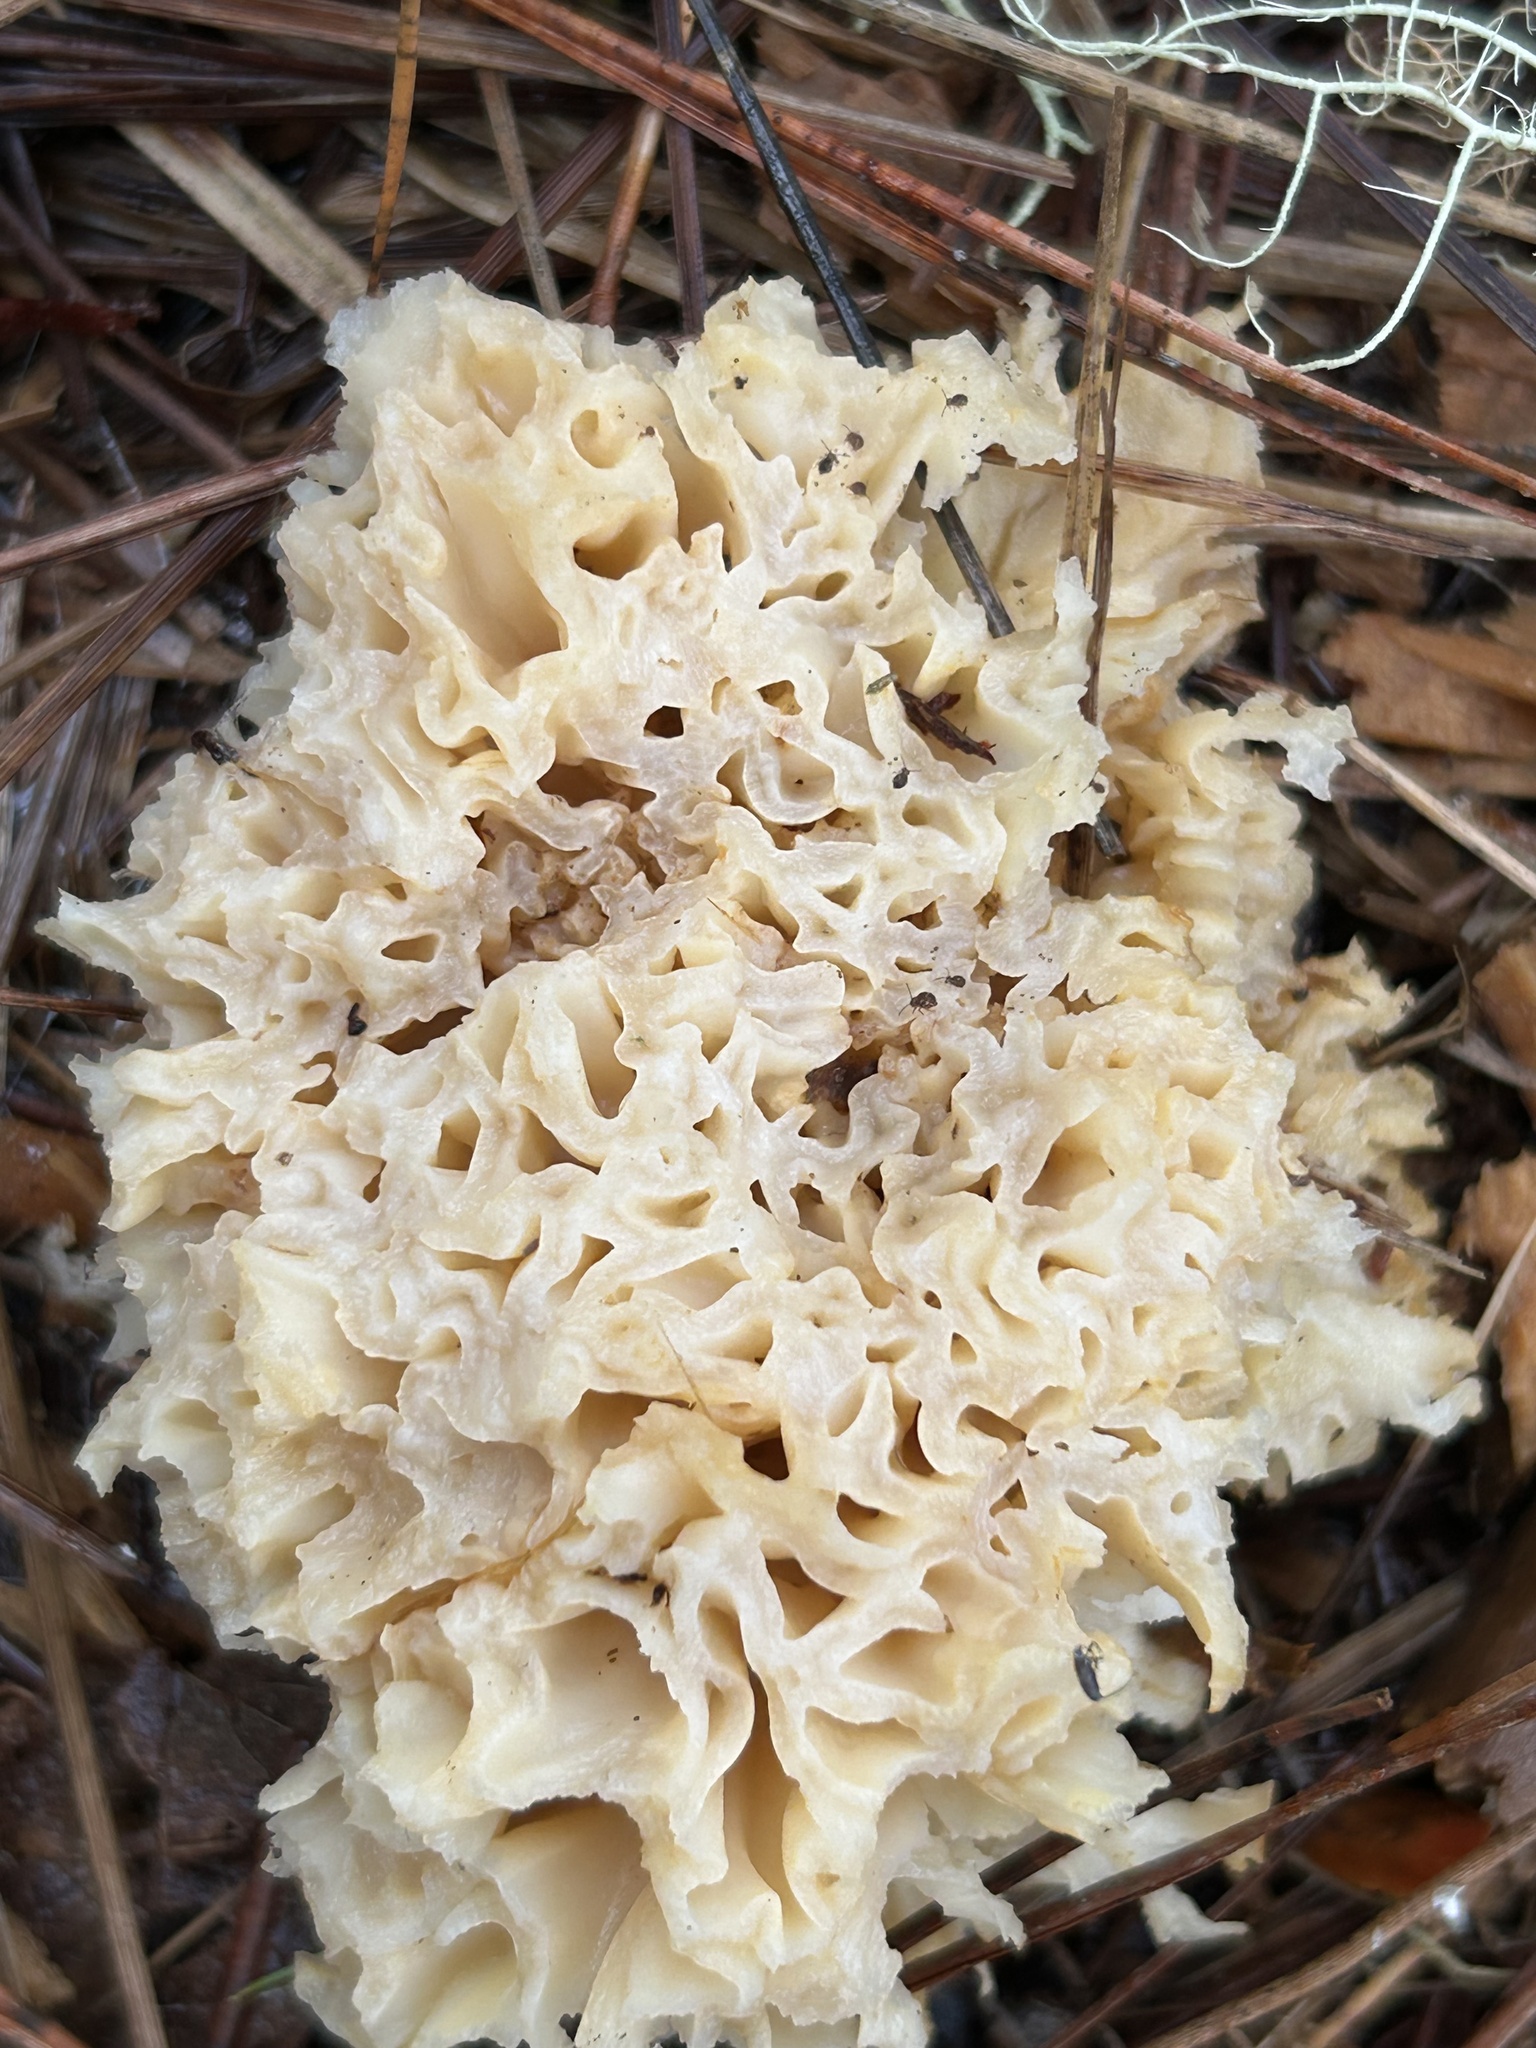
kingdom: Fungi
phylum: Basidiomycota
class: Agaricomycetes
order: Polyporales
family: Sparassidaceae
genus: Sparassis
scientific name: Sparassis radicata
